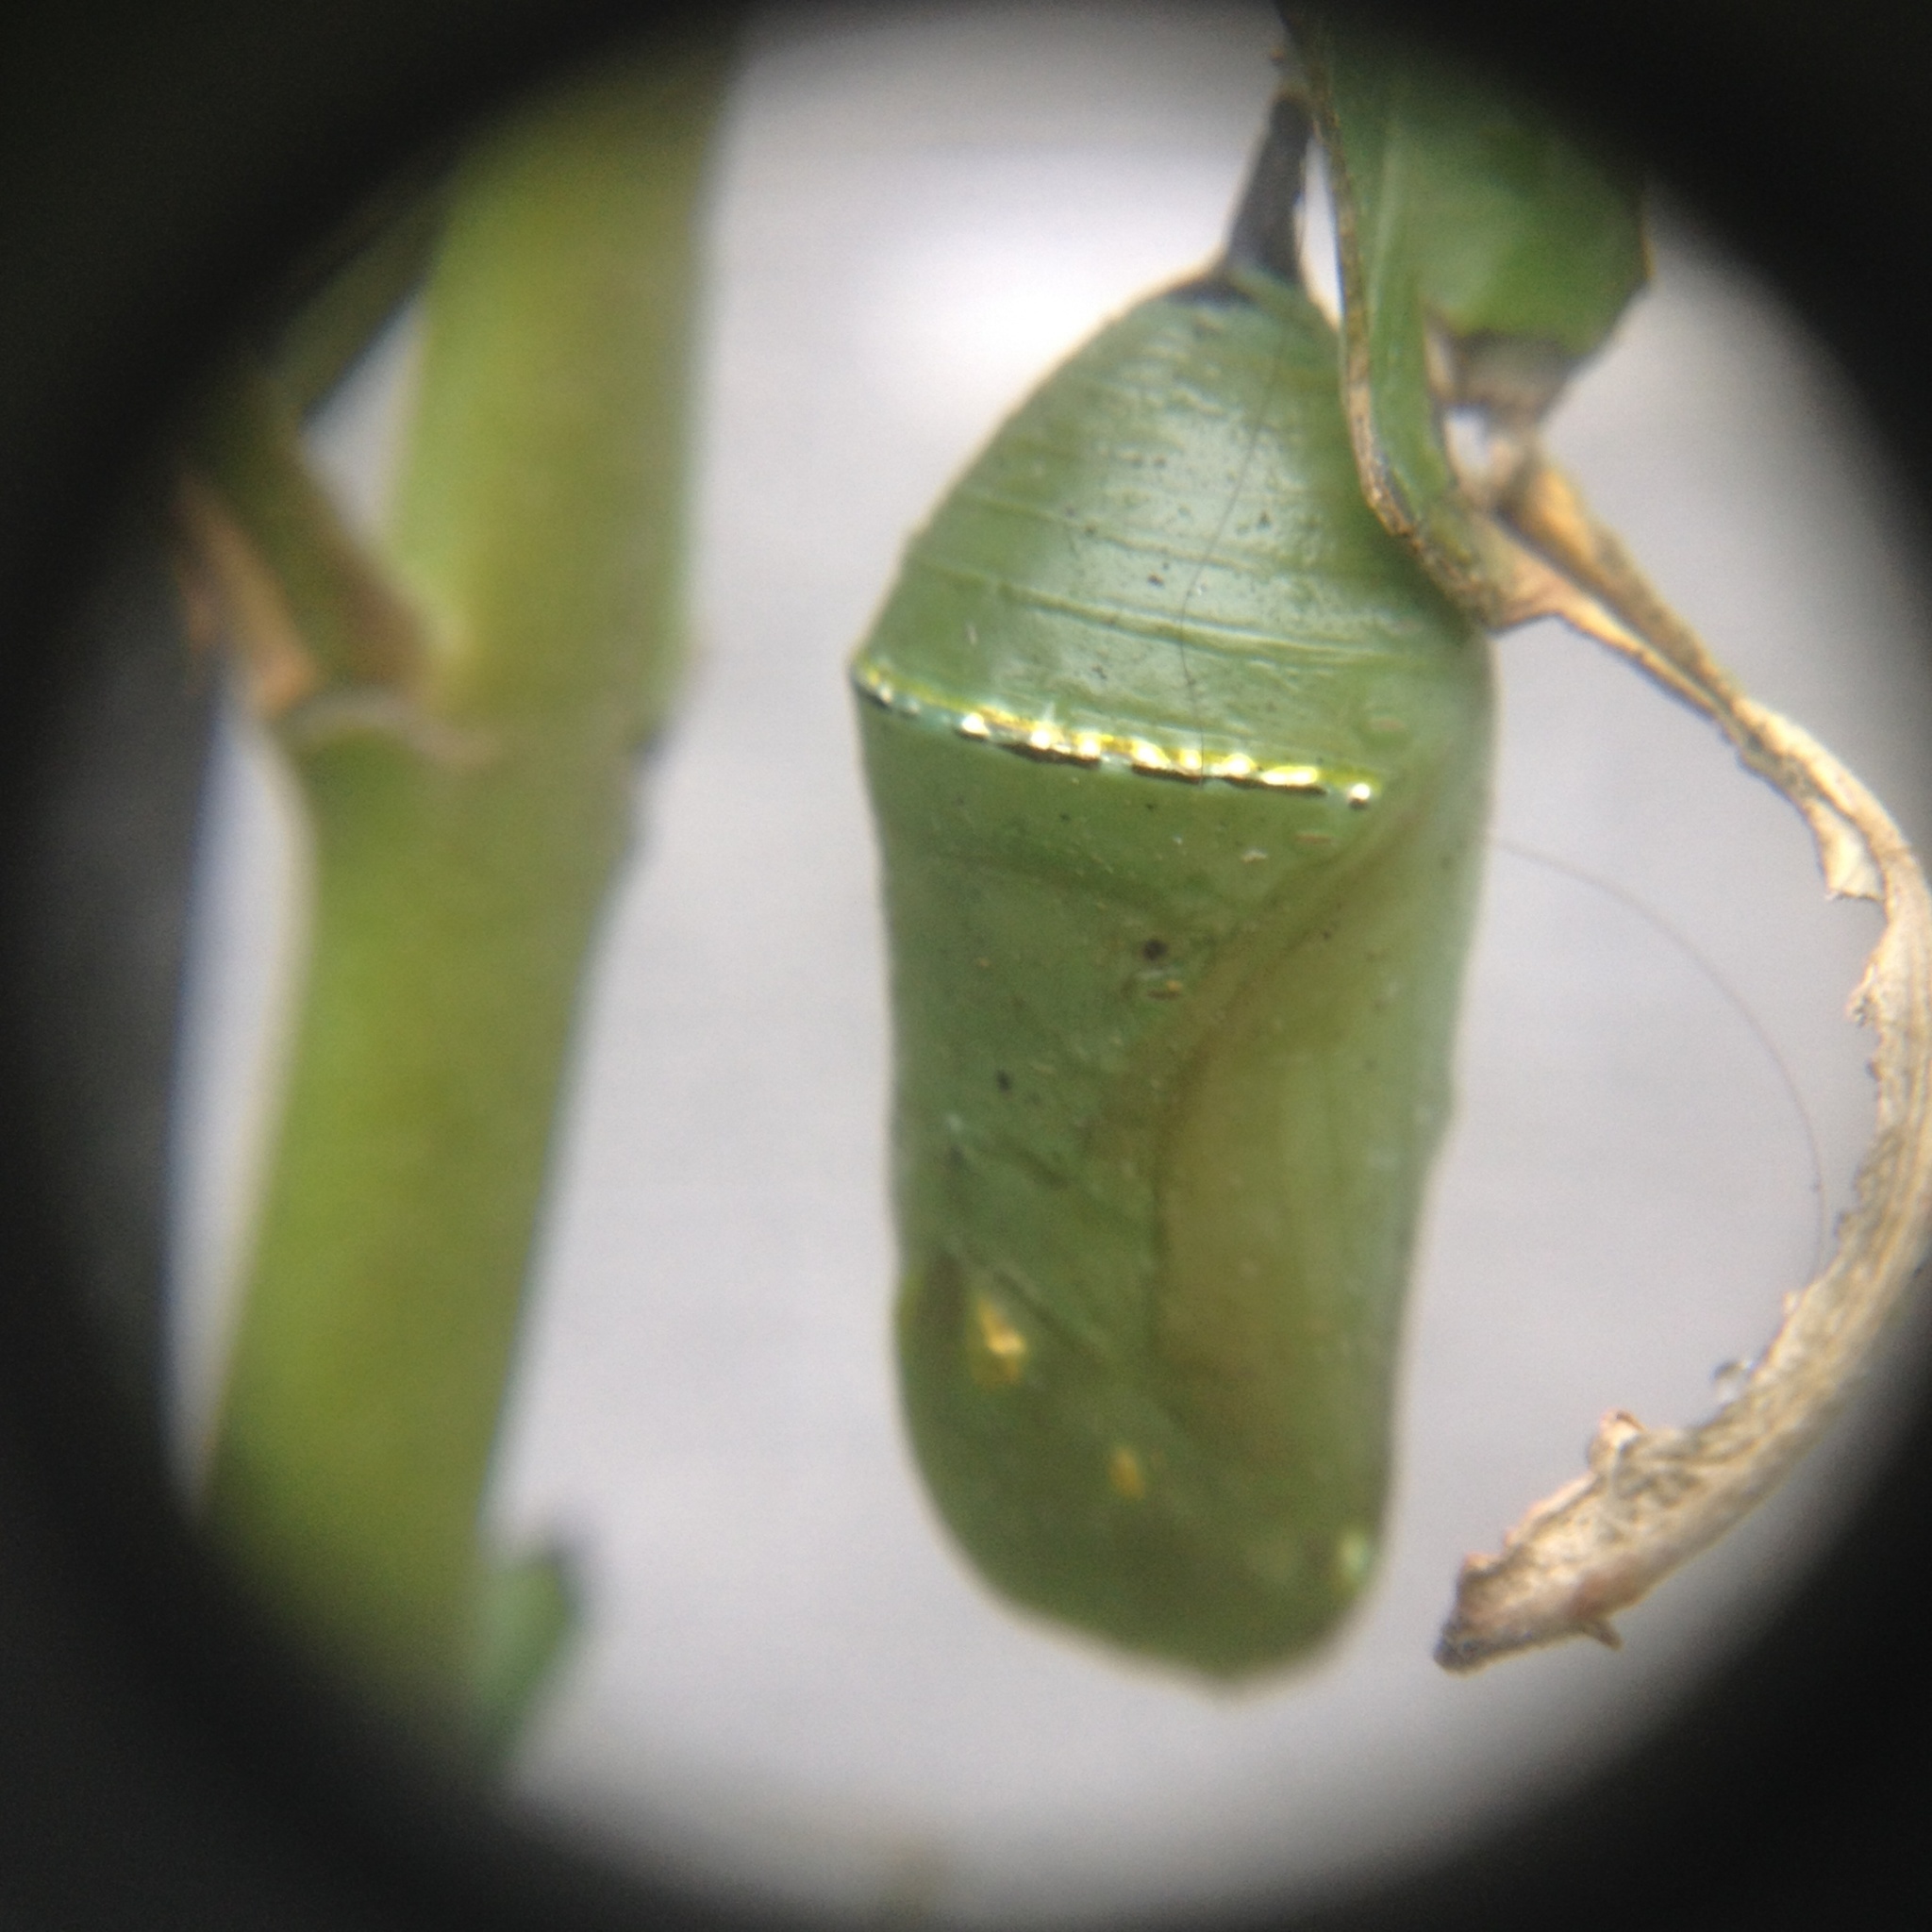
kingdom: Animalia
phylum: Arthropoda
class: Insecta
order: Lepidoptera
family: Nymphalidae
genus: Danaus
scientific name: Danaus plexippus
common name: Monarch
